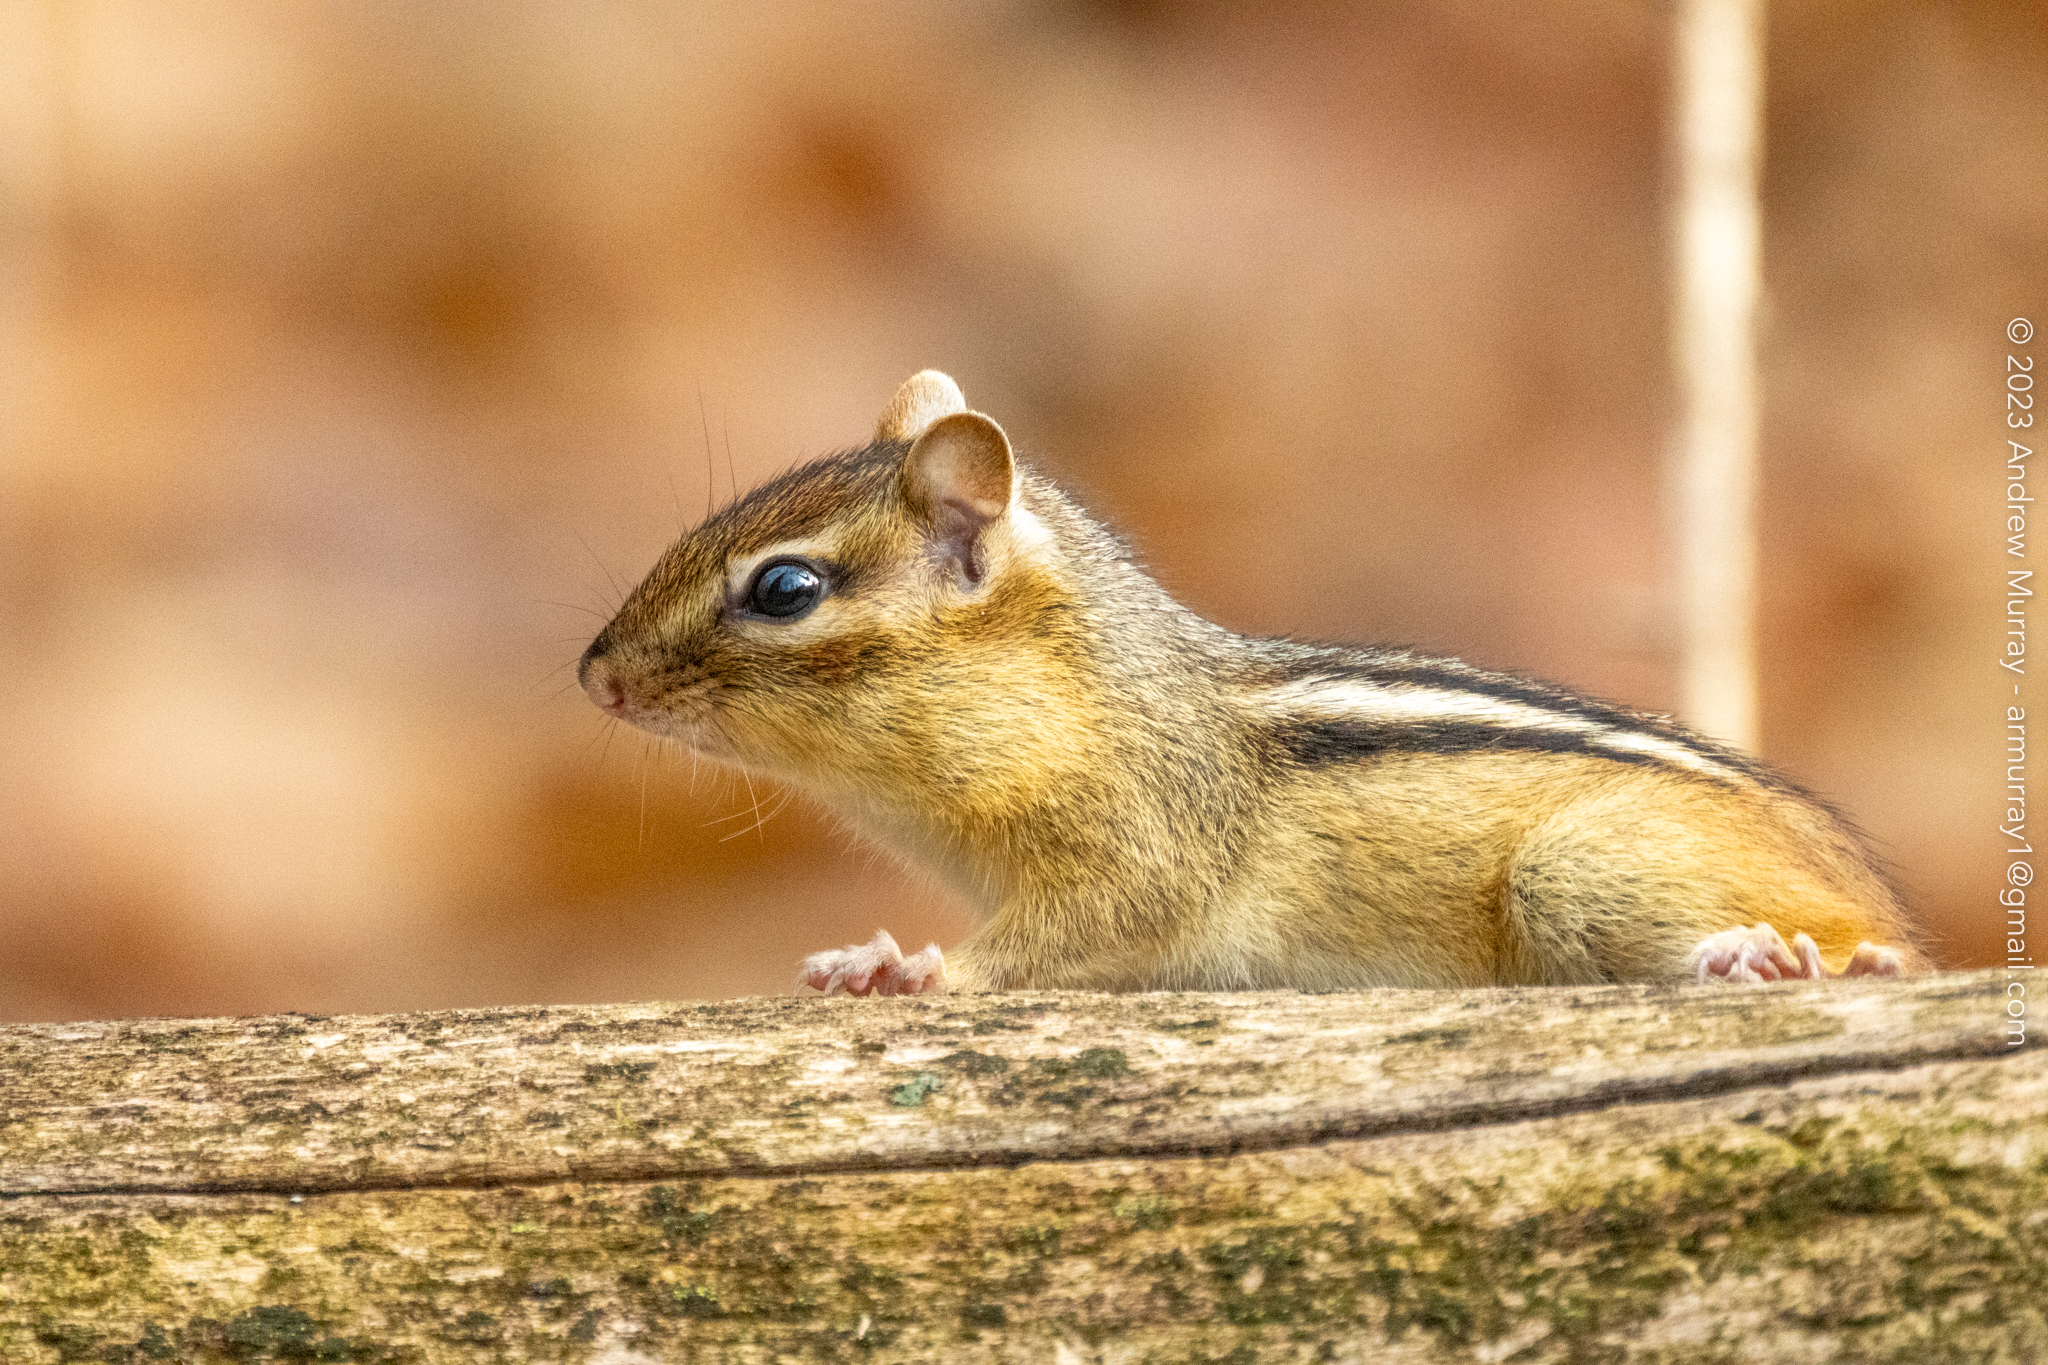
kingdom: Animalia
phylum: Chordata
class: Mammalia
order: Rodentia
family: Sciuridae
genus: Tamias
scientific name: Tamias striatus
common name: Eastern chipmunk
